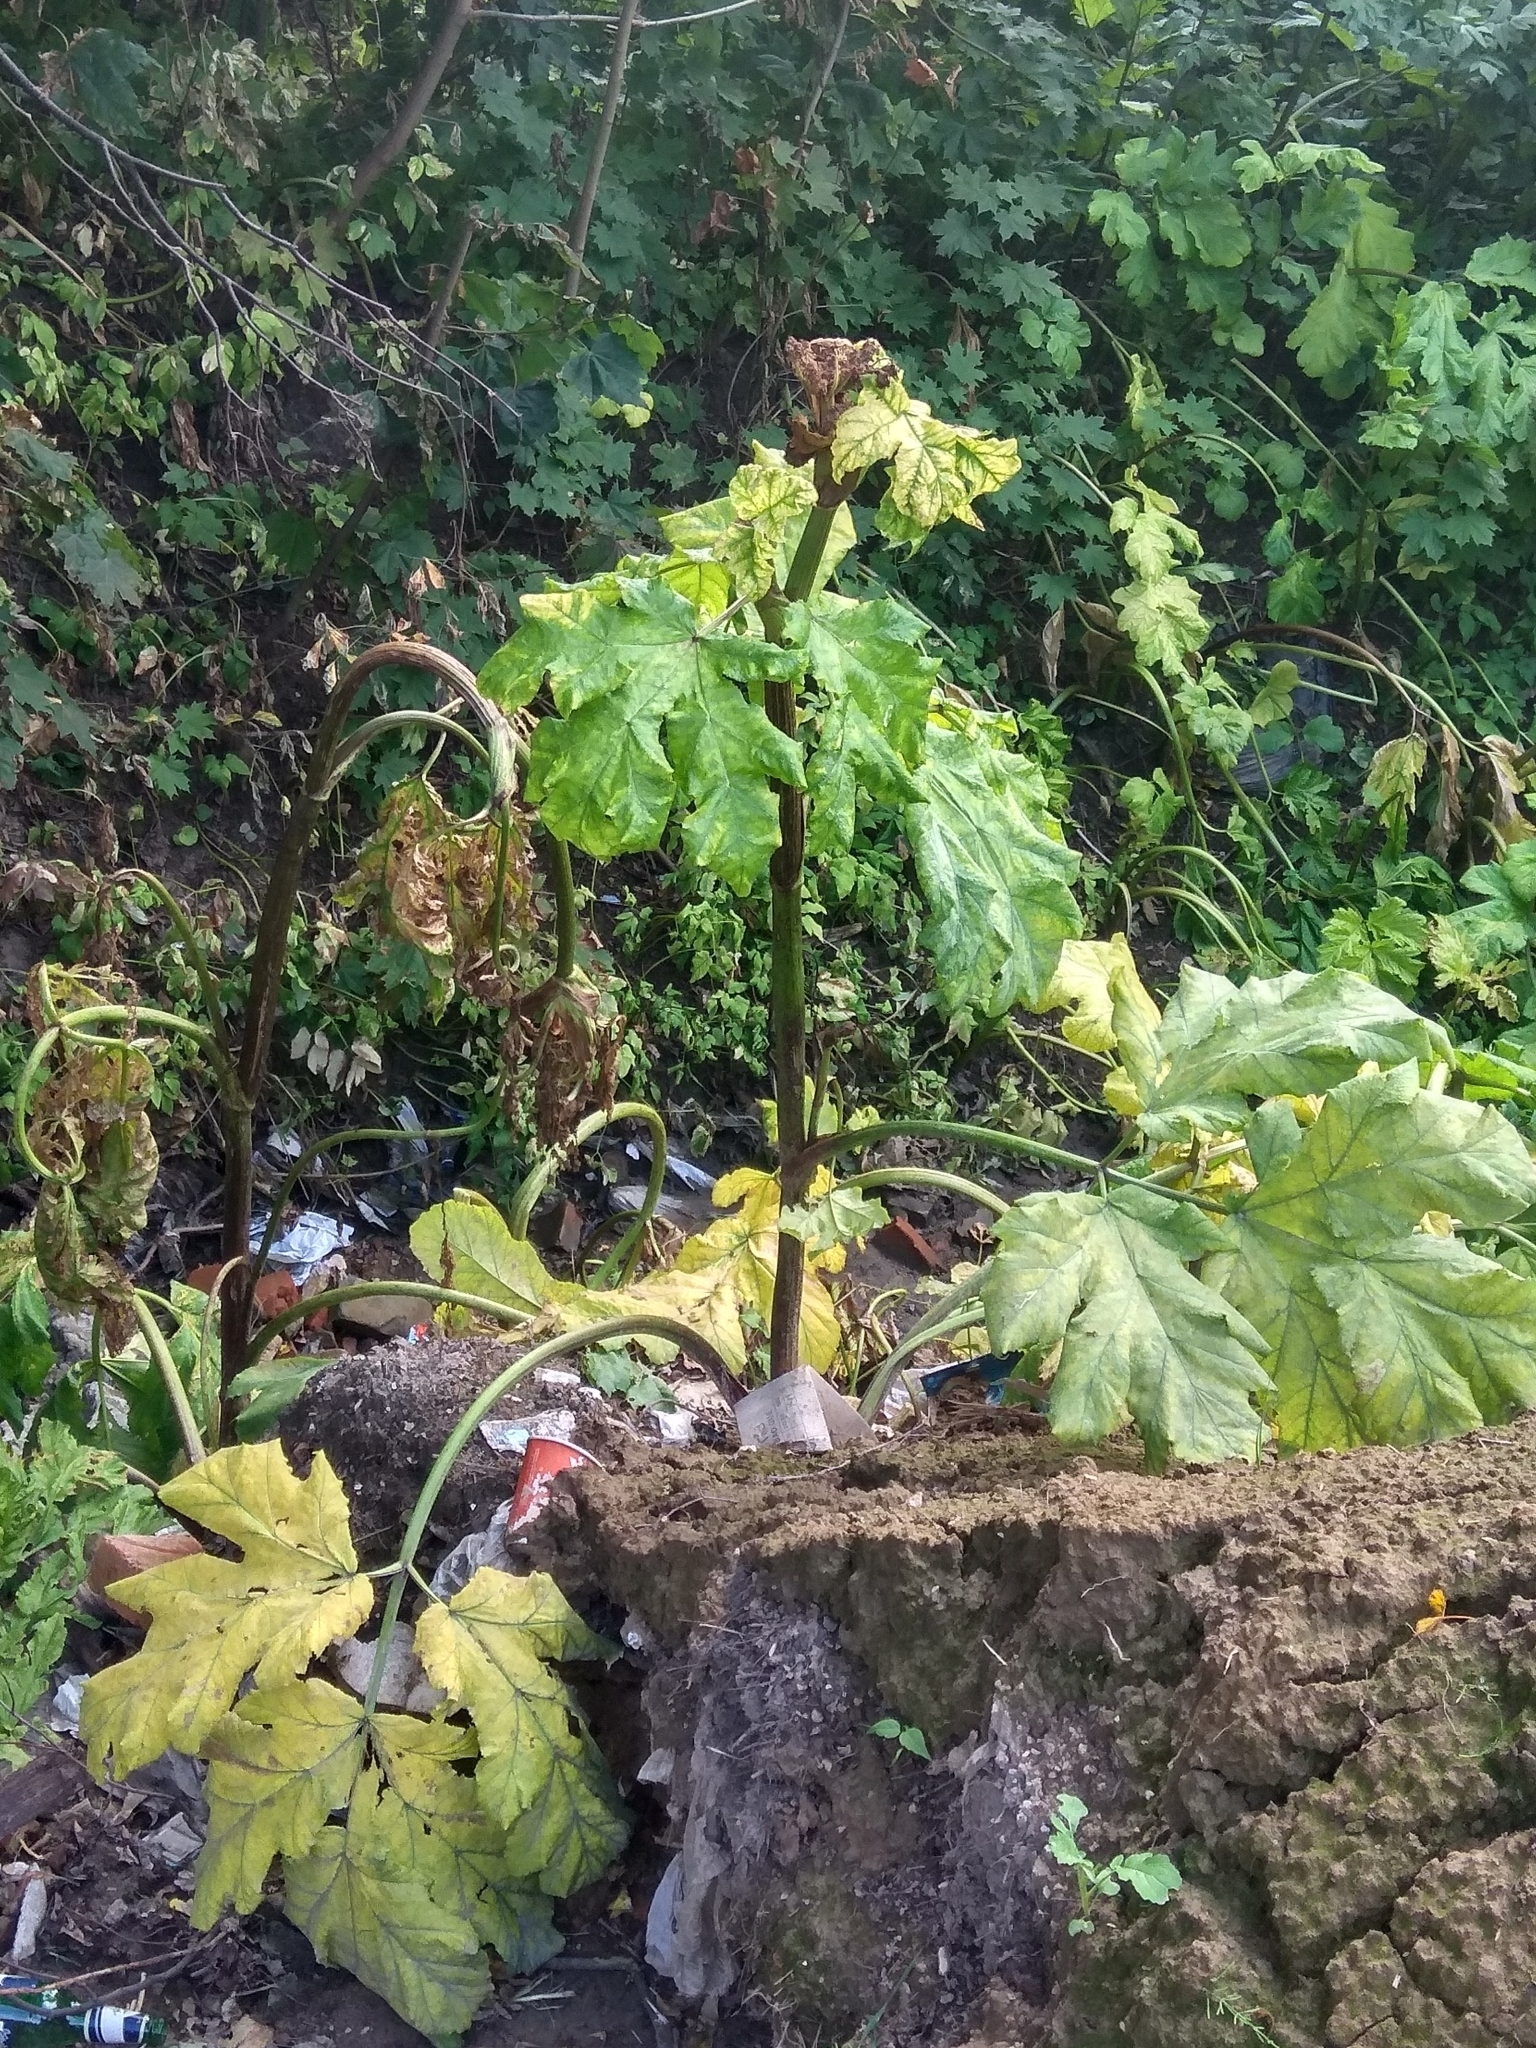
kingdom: Plantae
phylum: Tracheophyta
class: Magnoliopsida
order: Apiales
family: Apiaceae
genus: Heracleum
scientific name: Heracleum sosnowskyi
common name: Sosnowsky's hogweed
